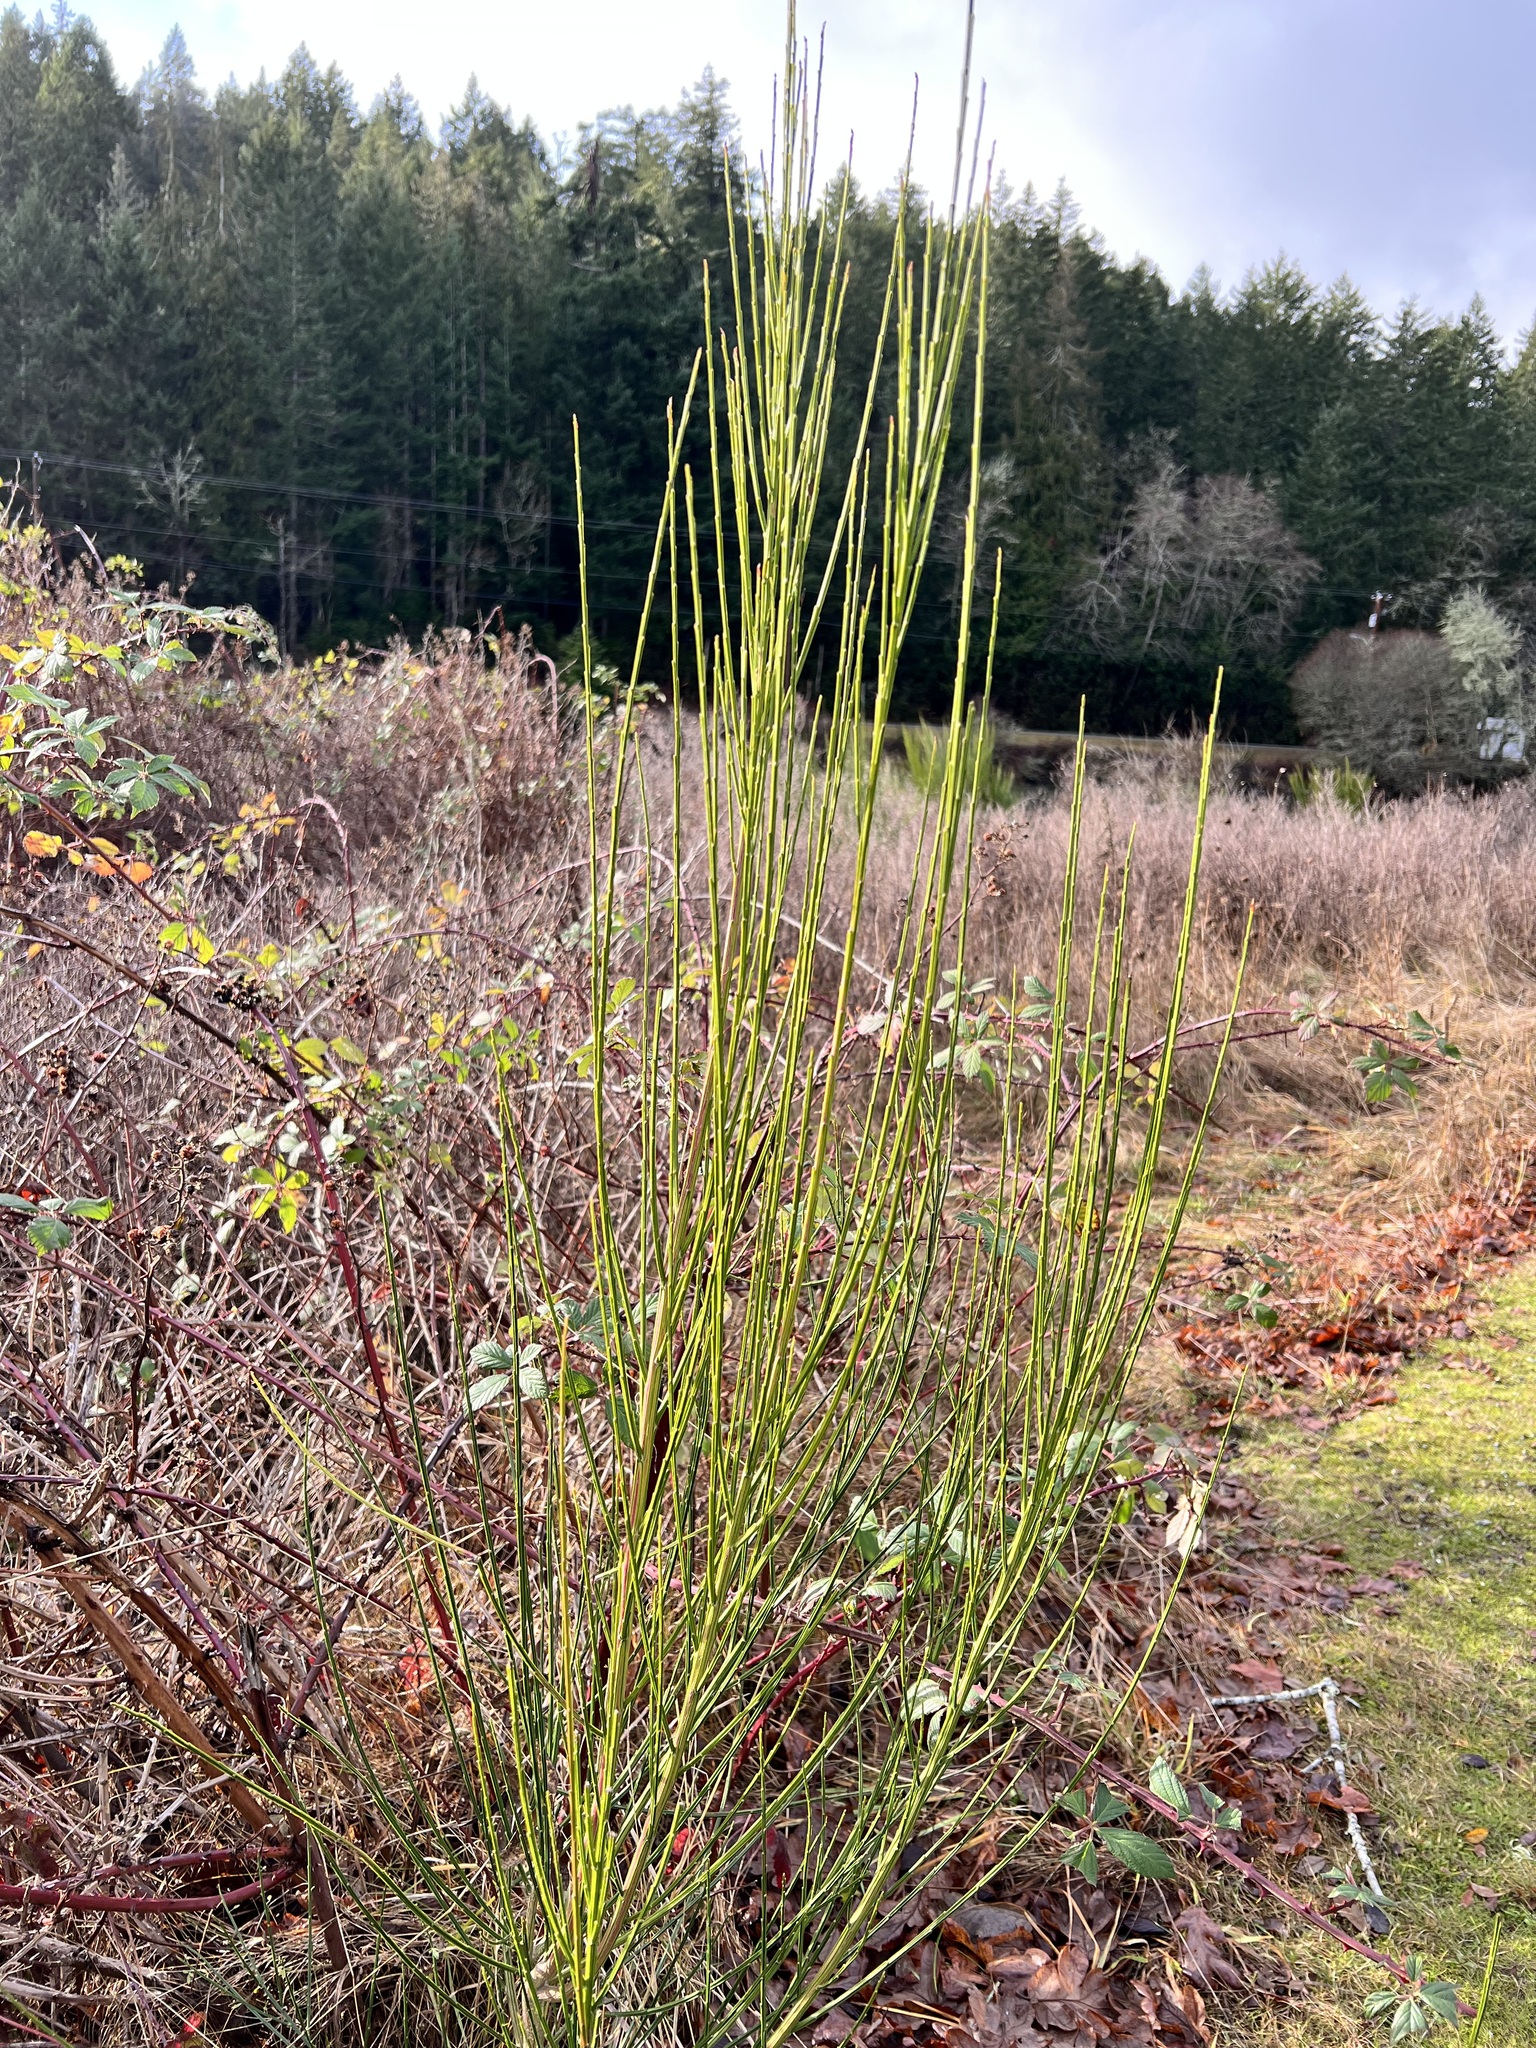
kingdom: Plantae
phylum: Tracheophyta
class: Magnoliopsida
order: Fabales
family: Fabaceae
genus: Cytisus
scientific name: Cytisus scoparius
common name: Scotch broom
